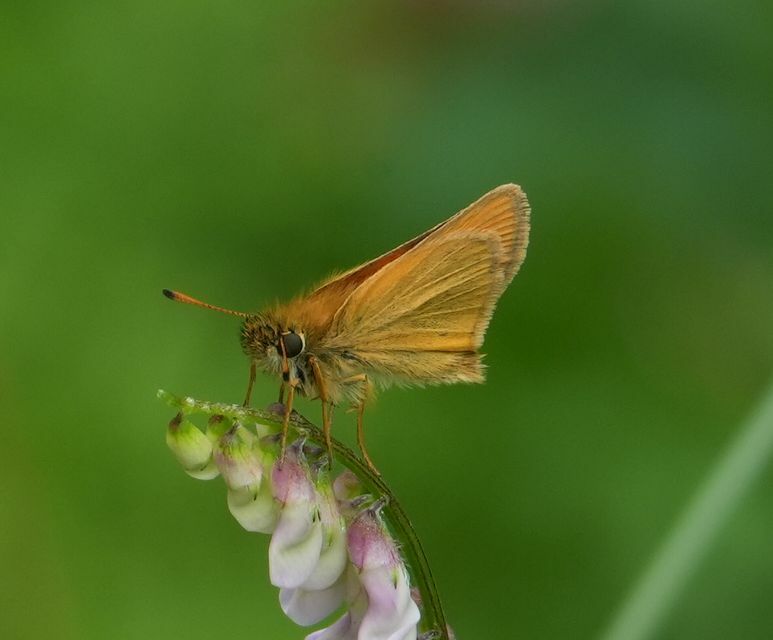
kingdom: Animalia
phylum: Arthropoda
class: Insecta
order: Lepidoptera
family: Hesperiidae
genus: Thymelicus
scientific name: Thymelicus lineola
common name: Essex skipper
